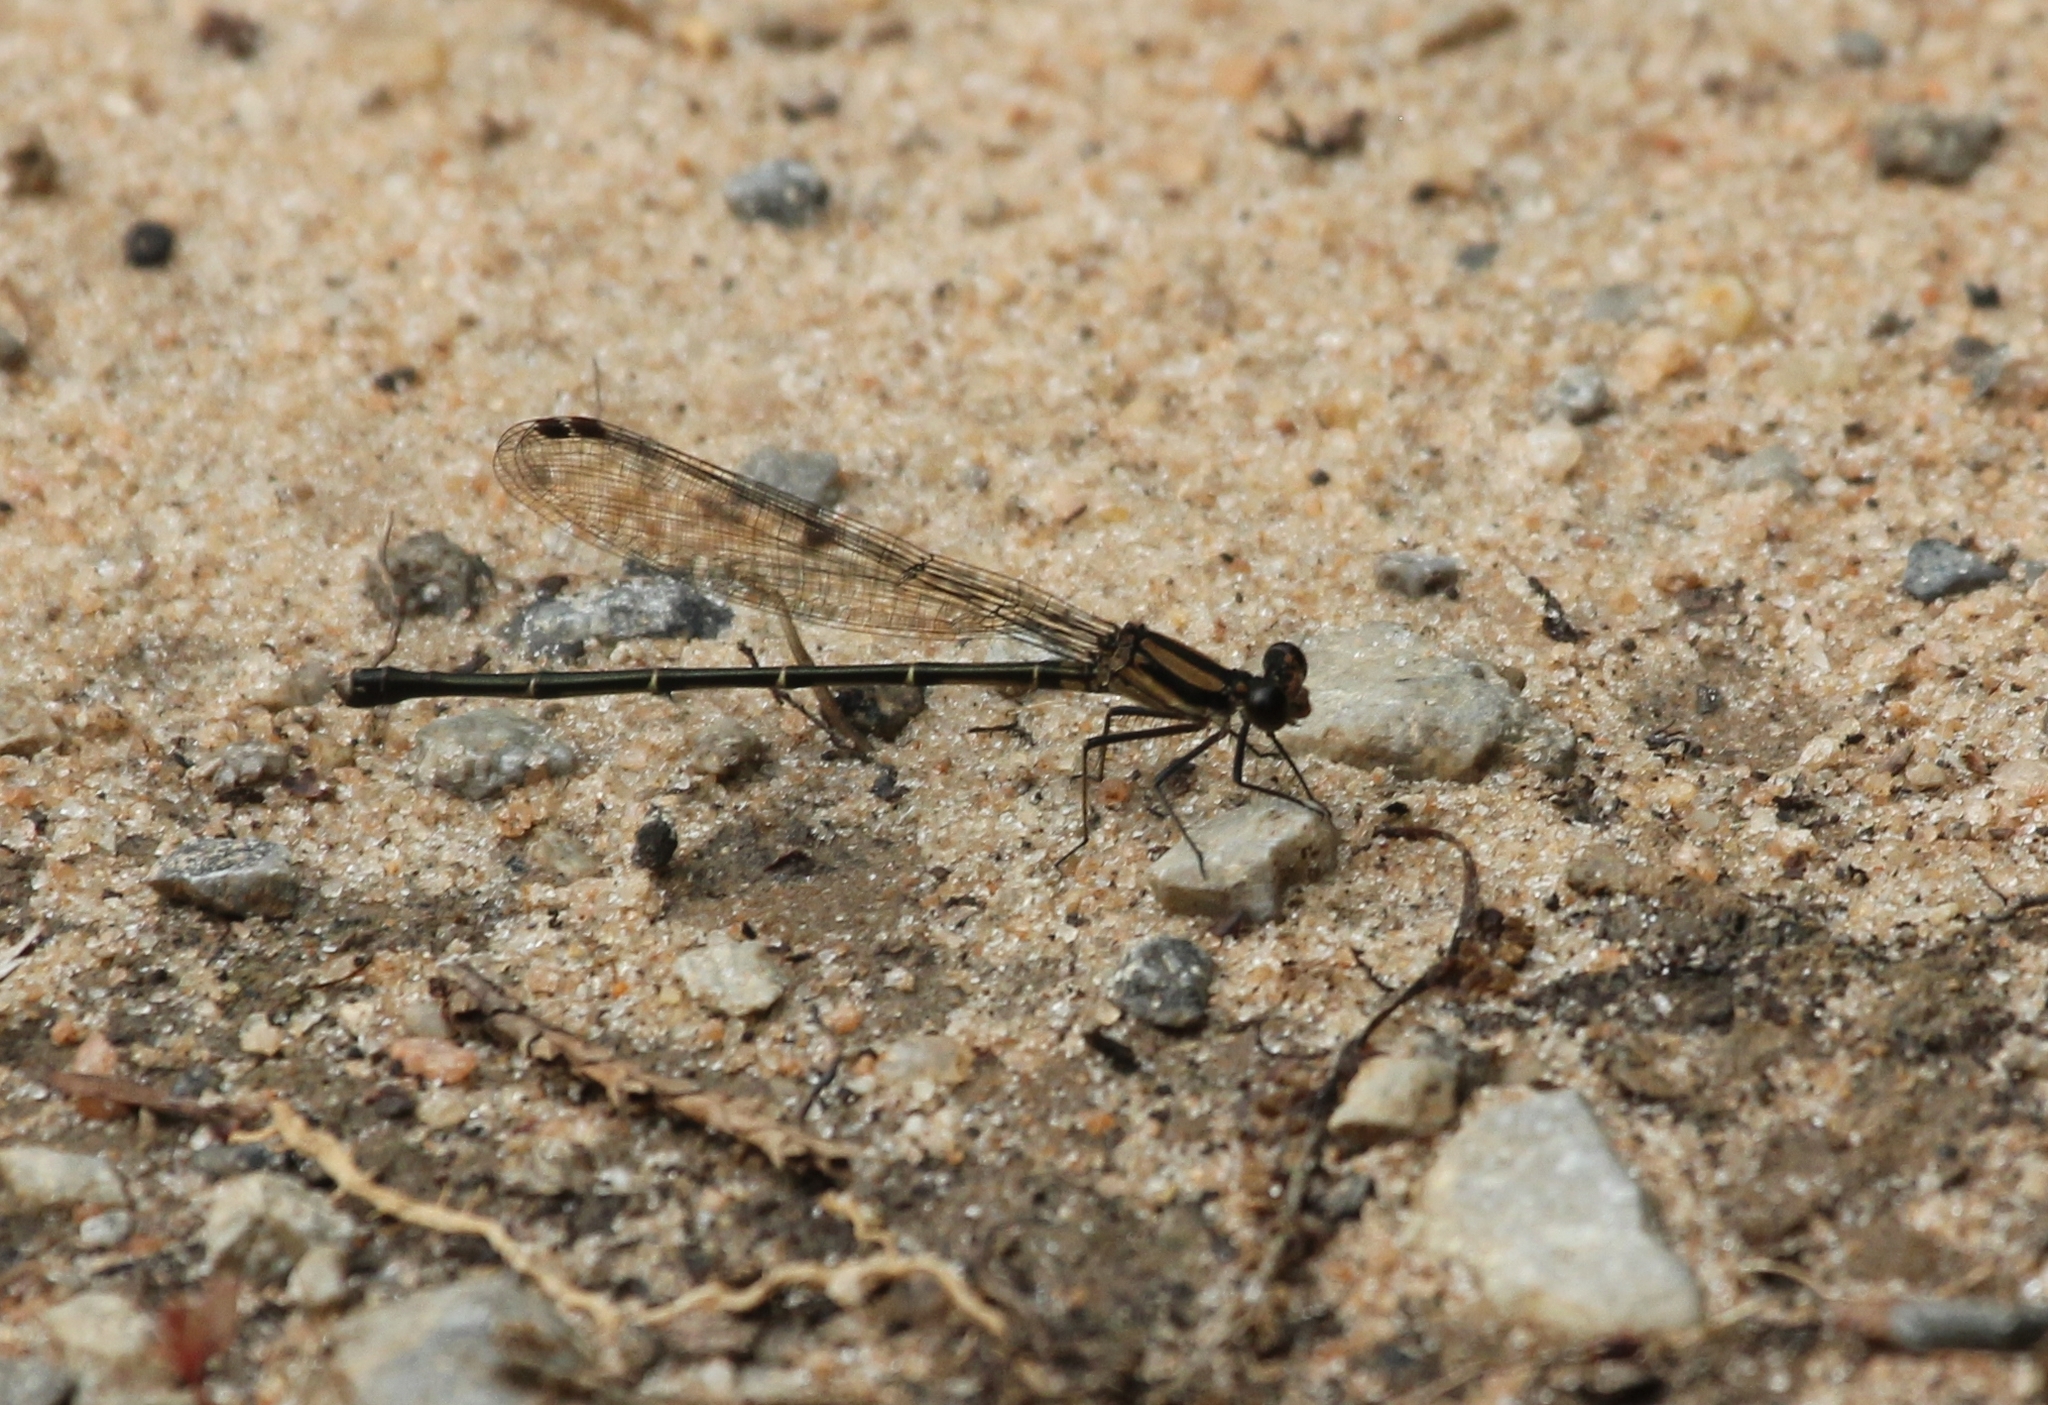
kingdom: Animalia
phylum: Arthropoda
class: Insecta
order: Odonata
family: Coenagrionidae
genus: Argia
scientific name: Argia tibialis
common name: Blue-tipped dancer
